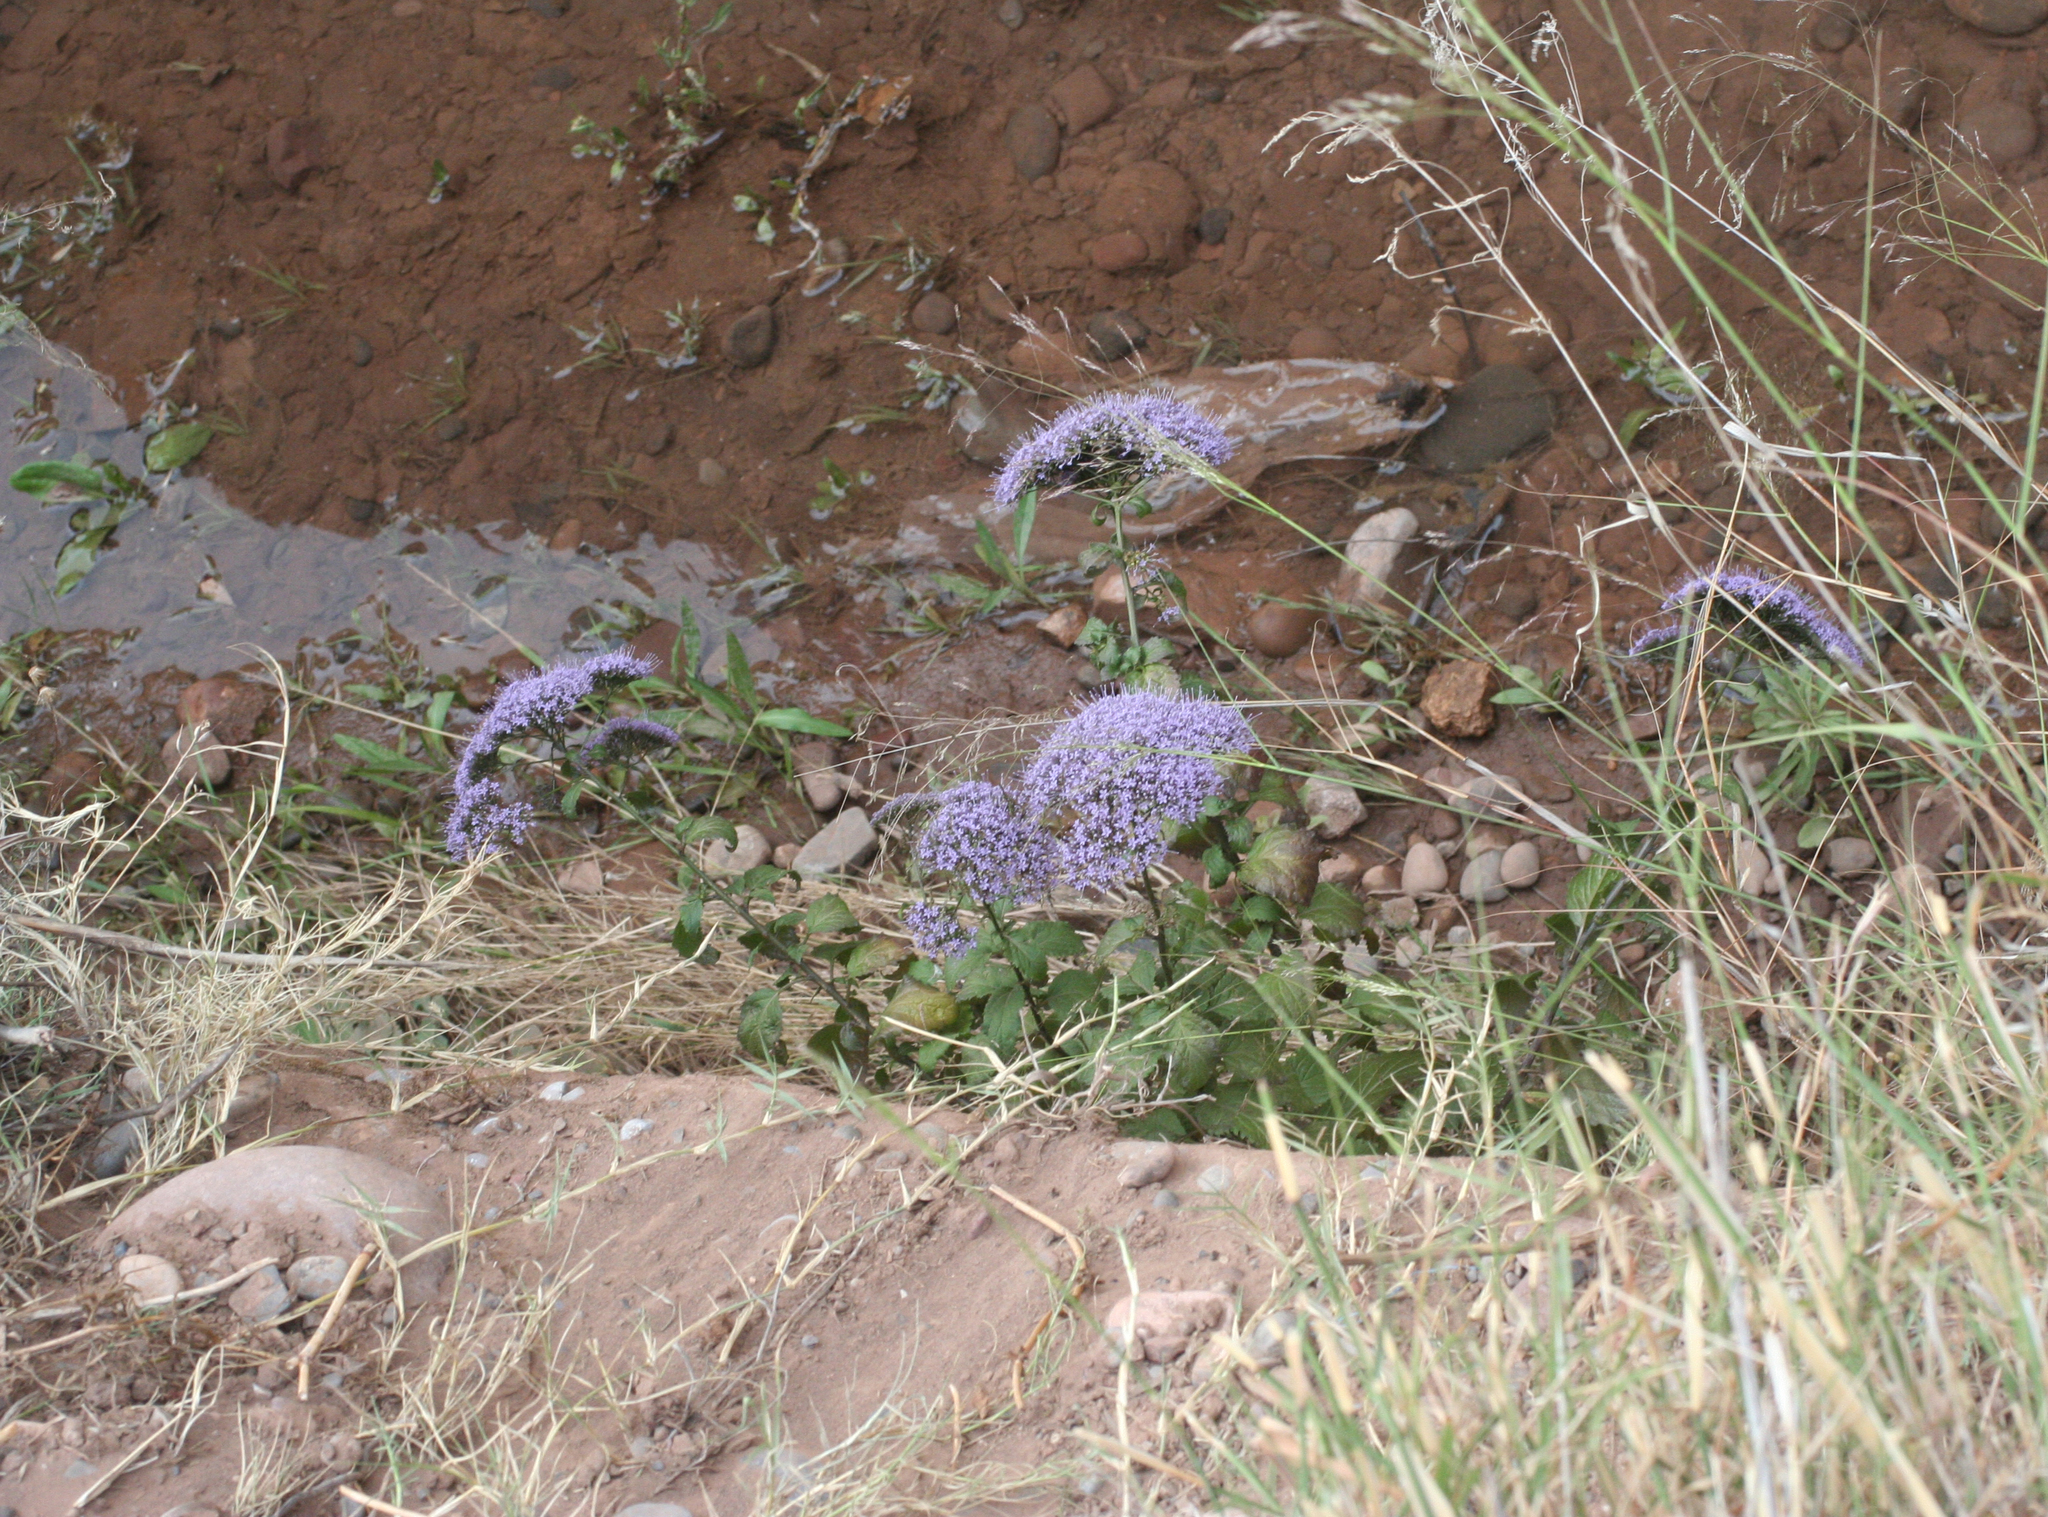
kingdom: Plantae
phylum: Tracheophyta
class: Magnoliopsida
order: Asterales
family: Campanulaceae
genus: Trachelium
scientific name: Trachelium caeruleum
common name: Throatwort
